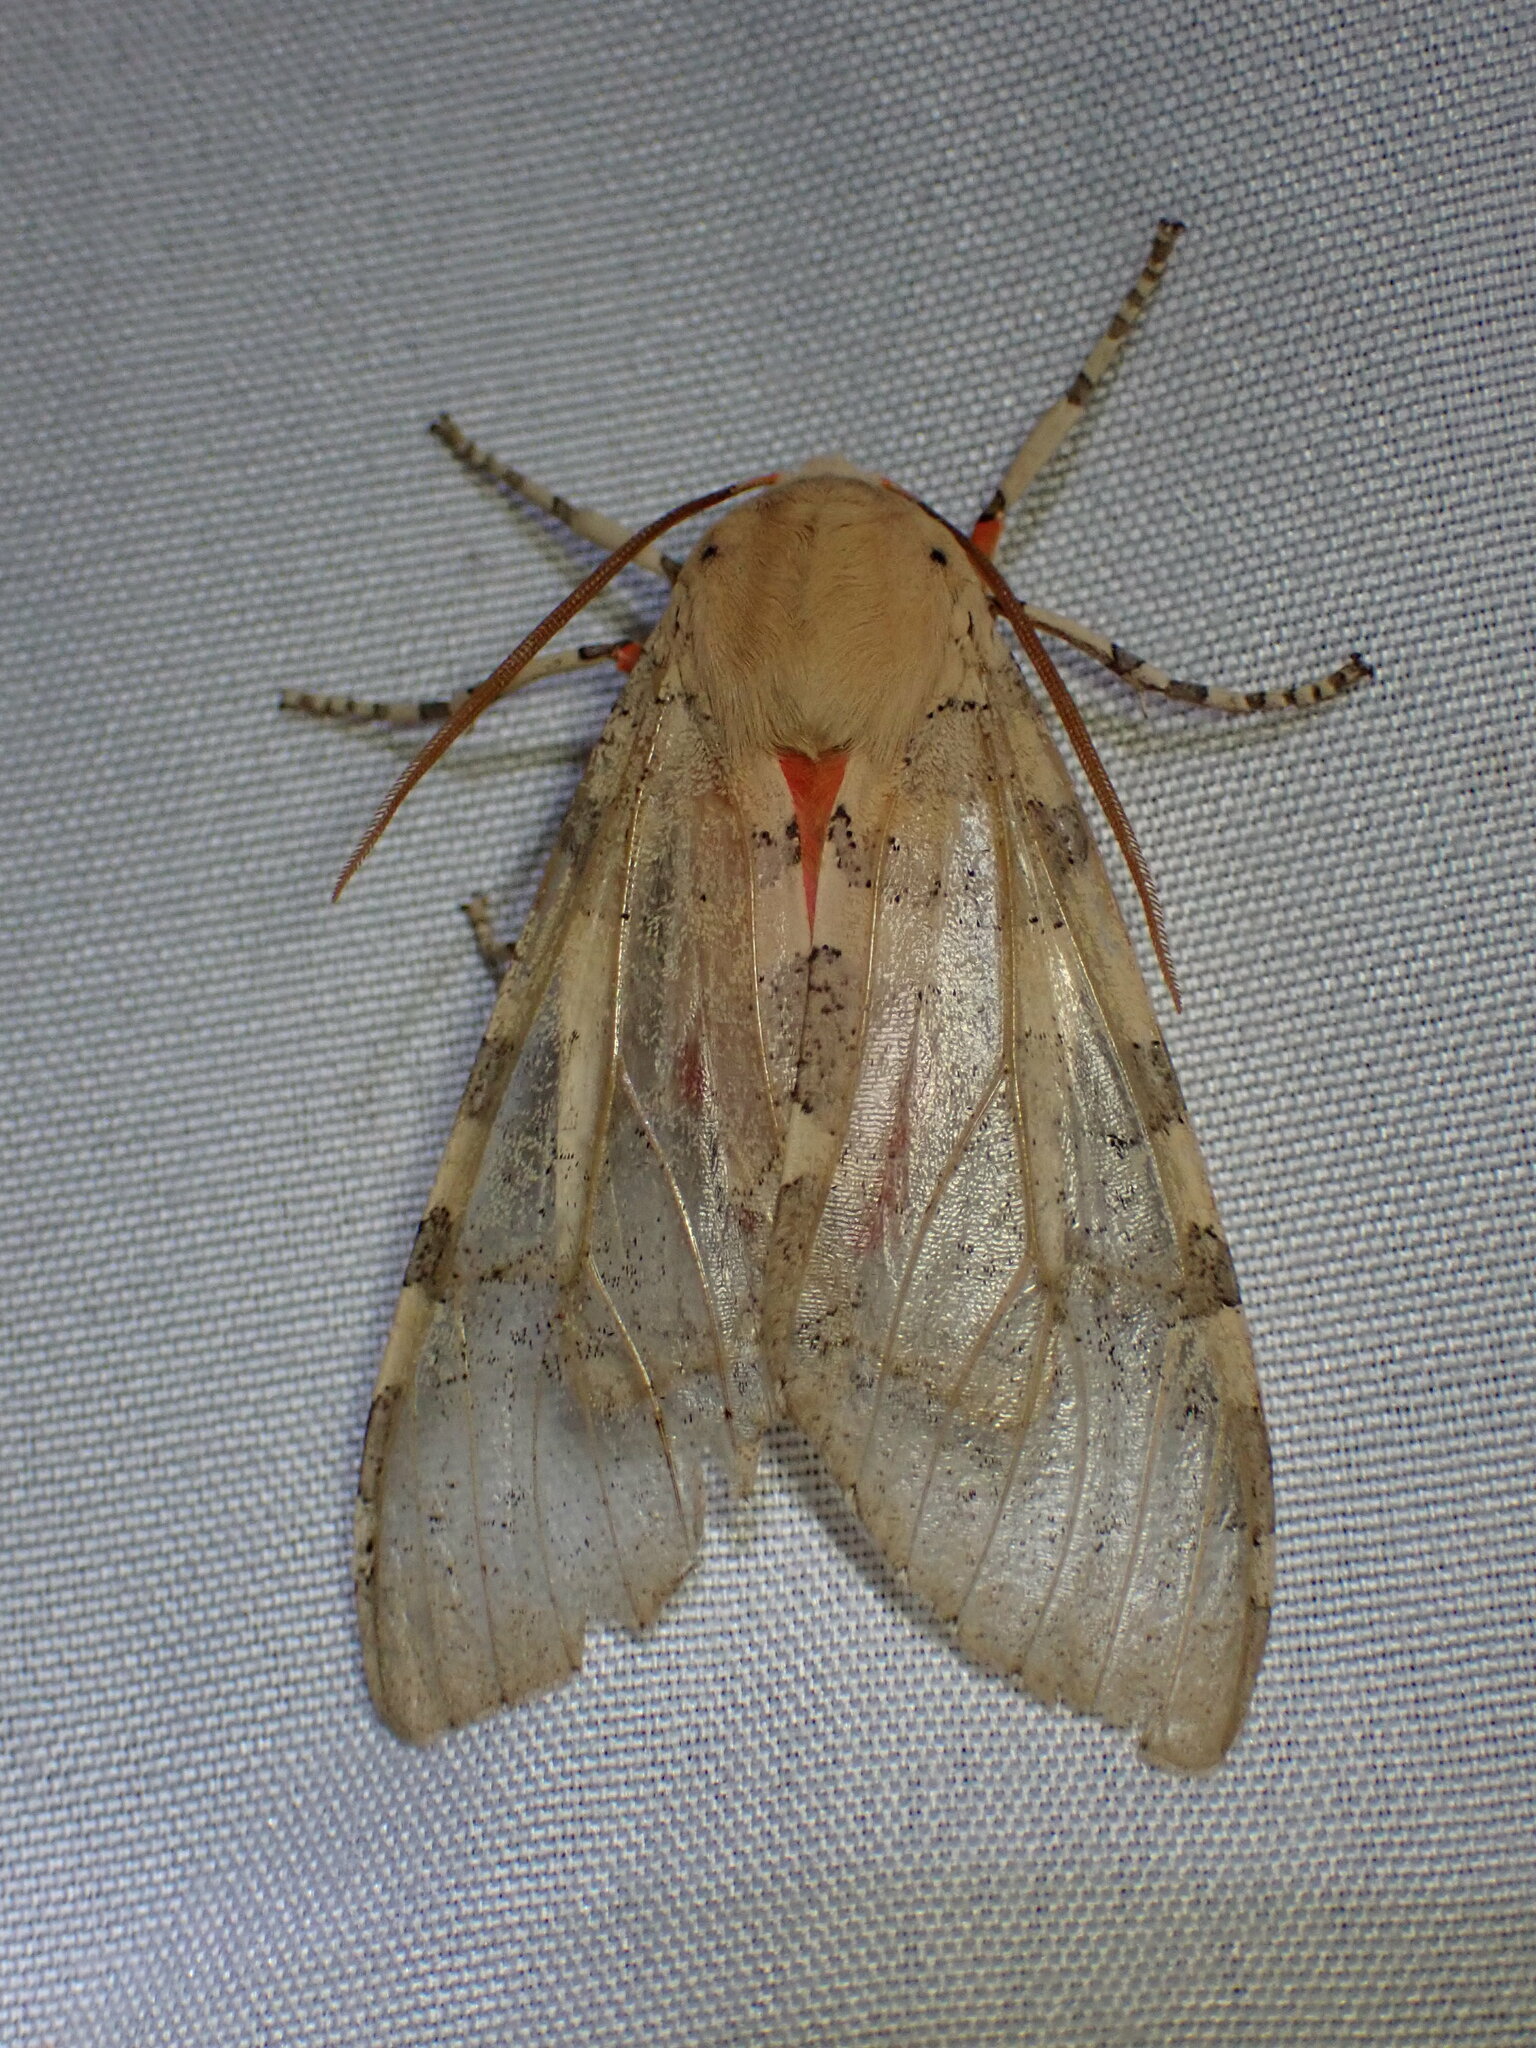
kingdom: Animalia
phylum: Arthropoda
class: Insecta
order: Lepidoptera
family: Erebidae
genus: Hemihyalea
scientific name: Hemihyalea edwardsii
